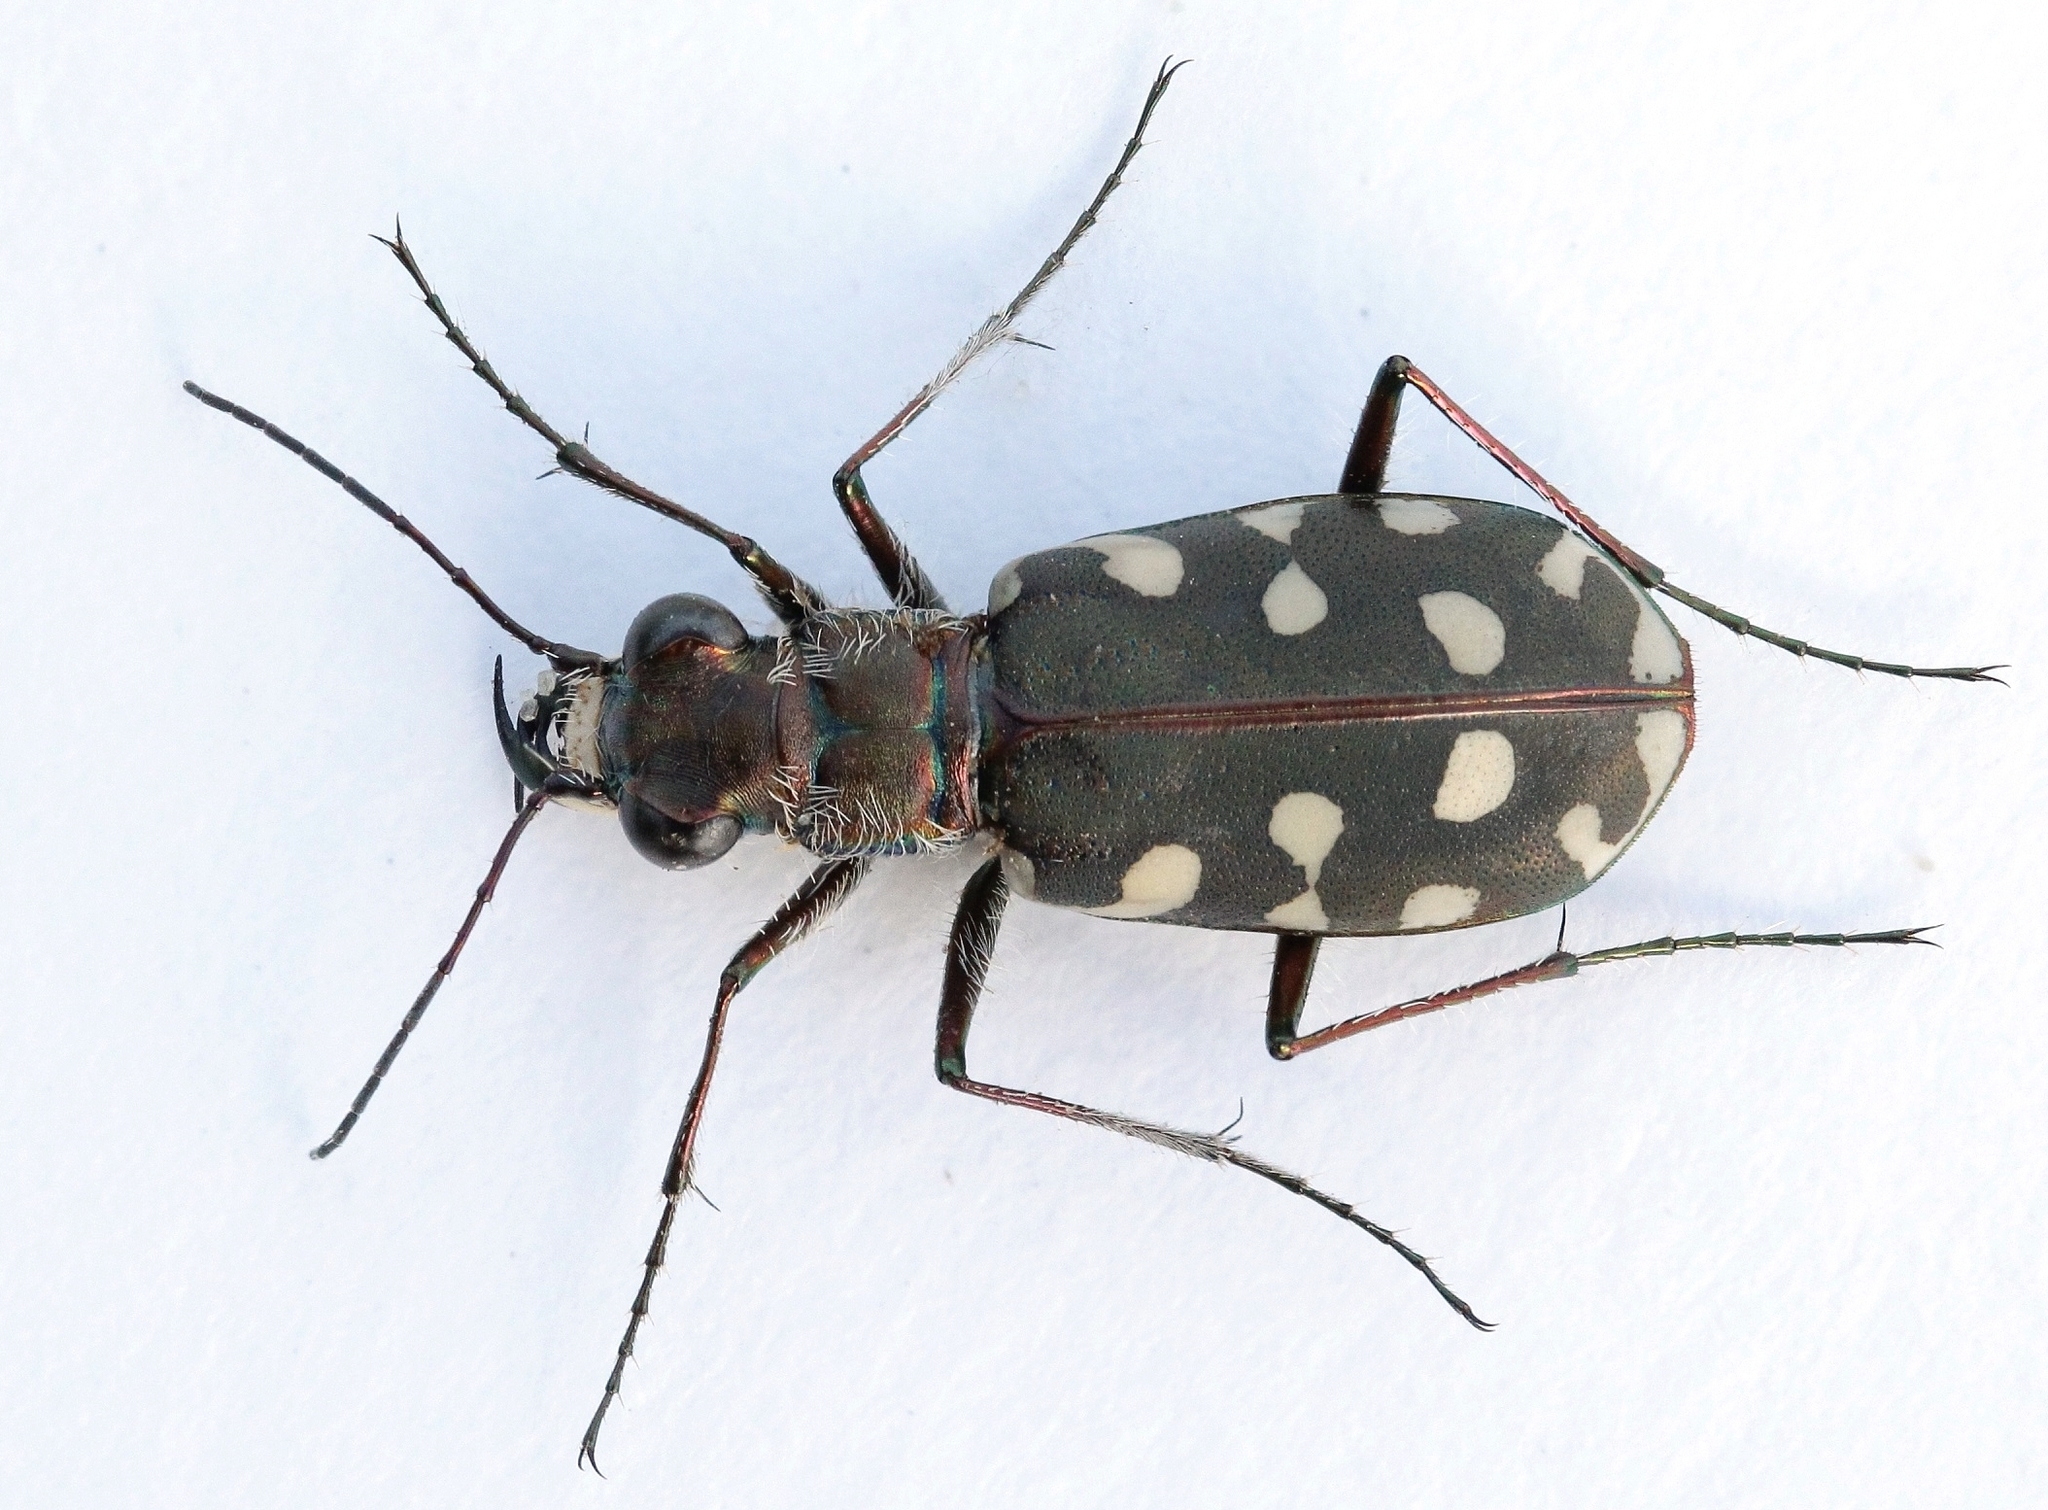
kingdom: Animalia
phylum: Arthropoda
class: Insecta
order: Coleoptera
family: Carabidae
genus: Cicindela
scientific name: Cicindela littoralis
